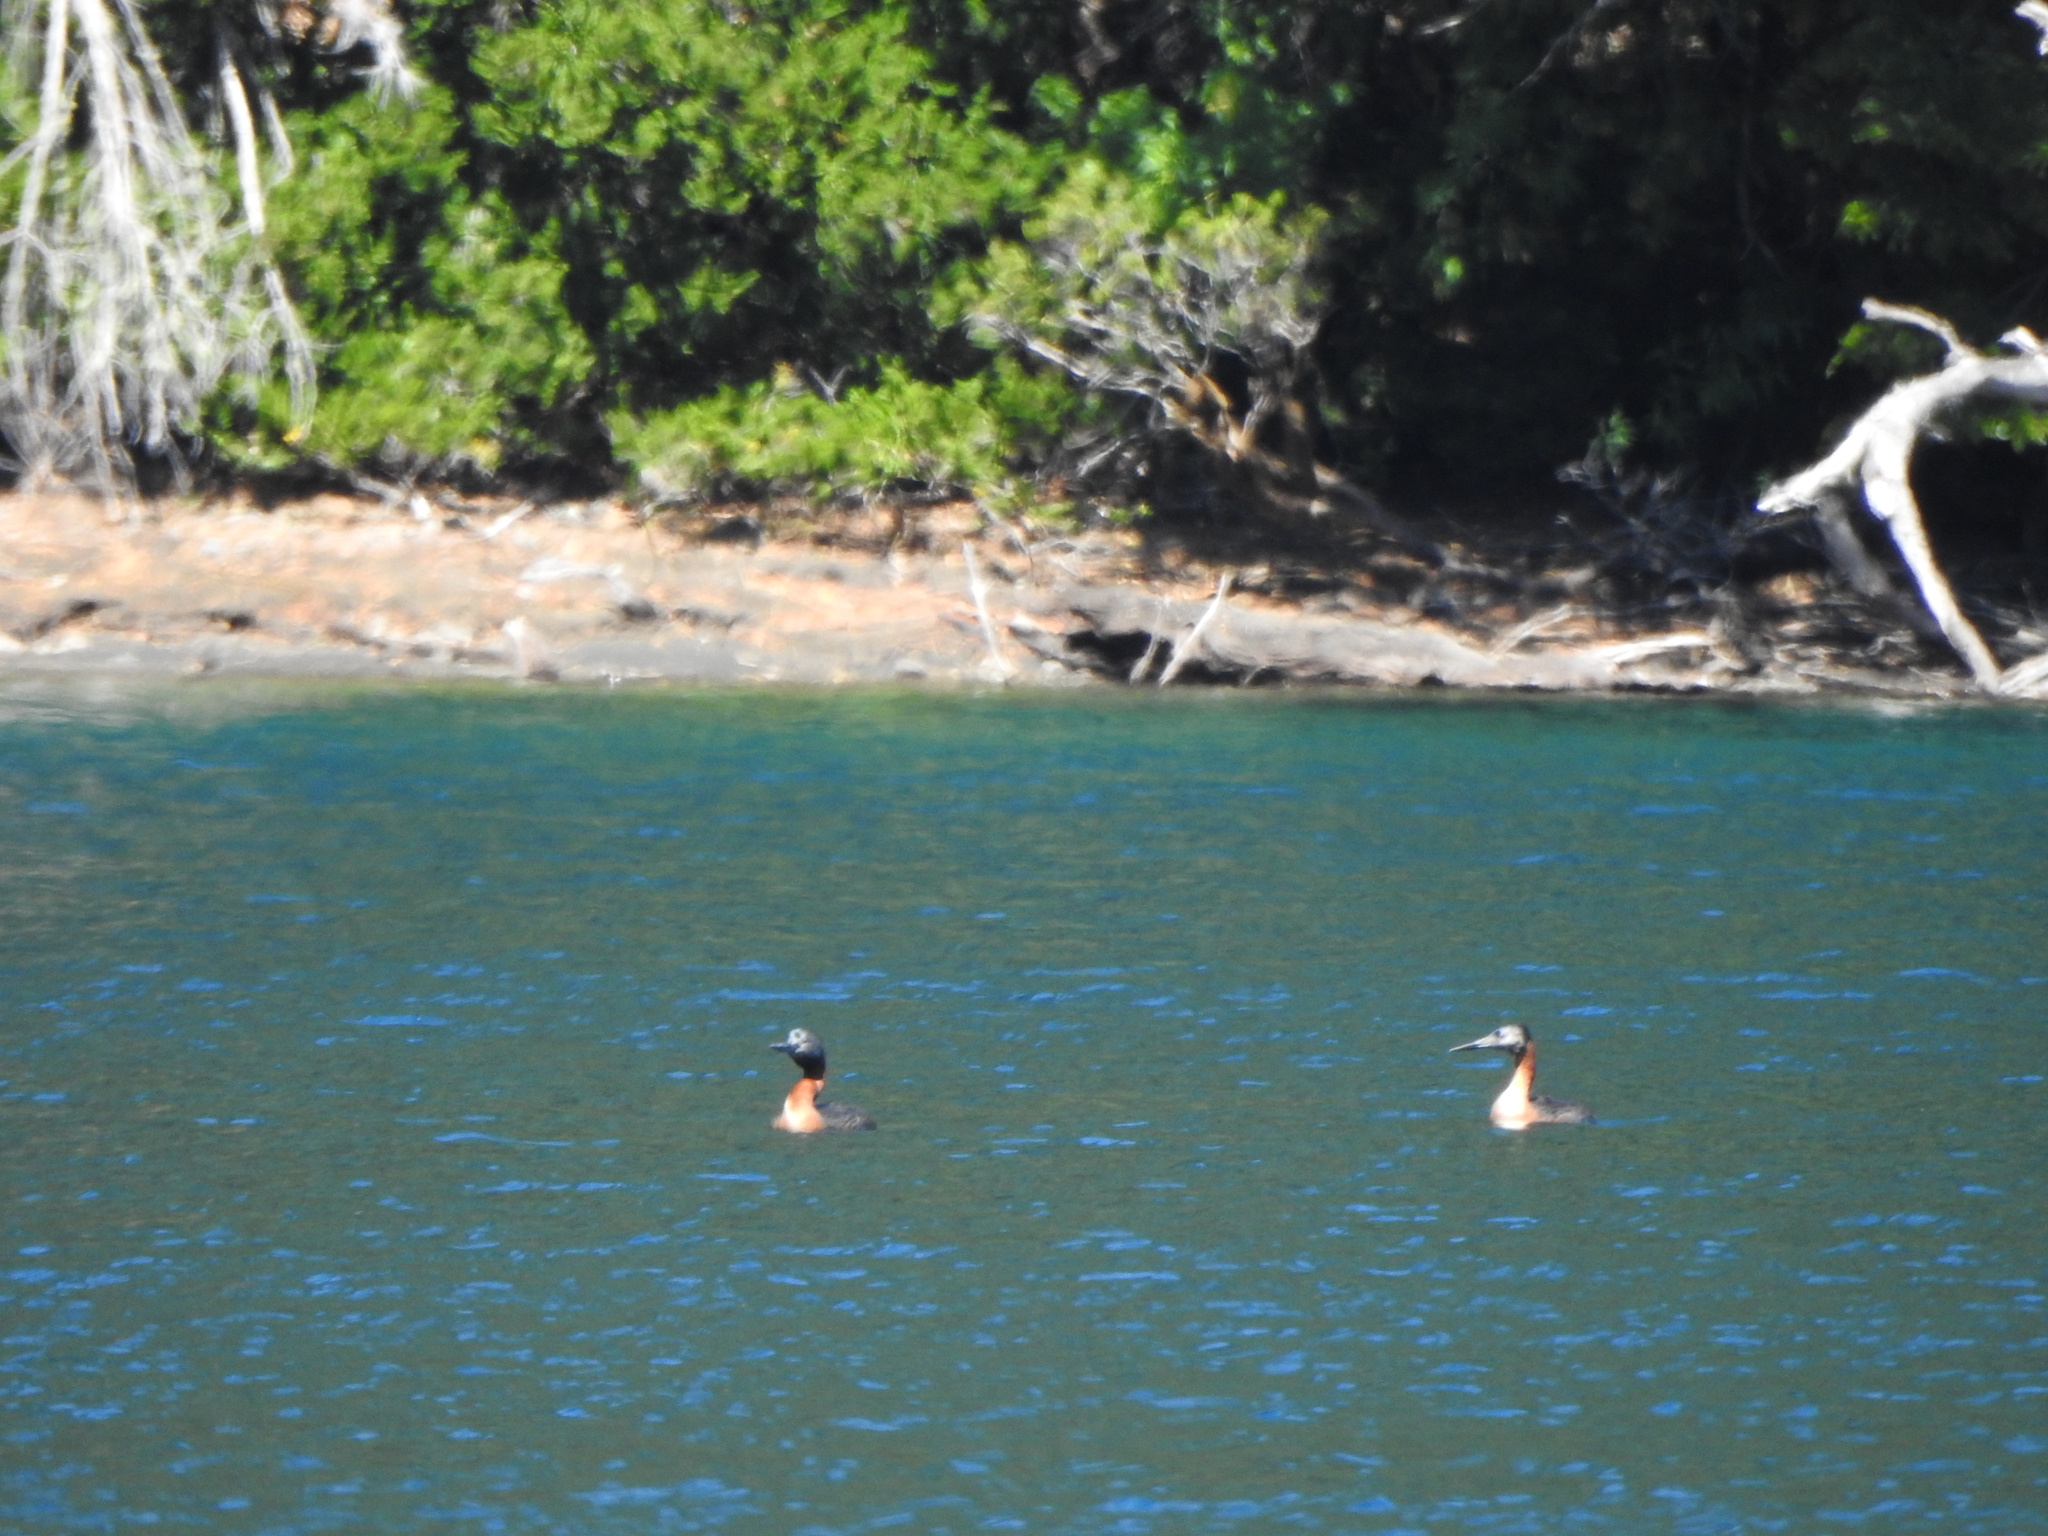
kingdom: Animalia
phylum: Chordata
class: Aves
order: Podicipediformes
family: Podicipedidae
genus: Podiceps
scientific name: Podiceps major
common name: Great grebe
